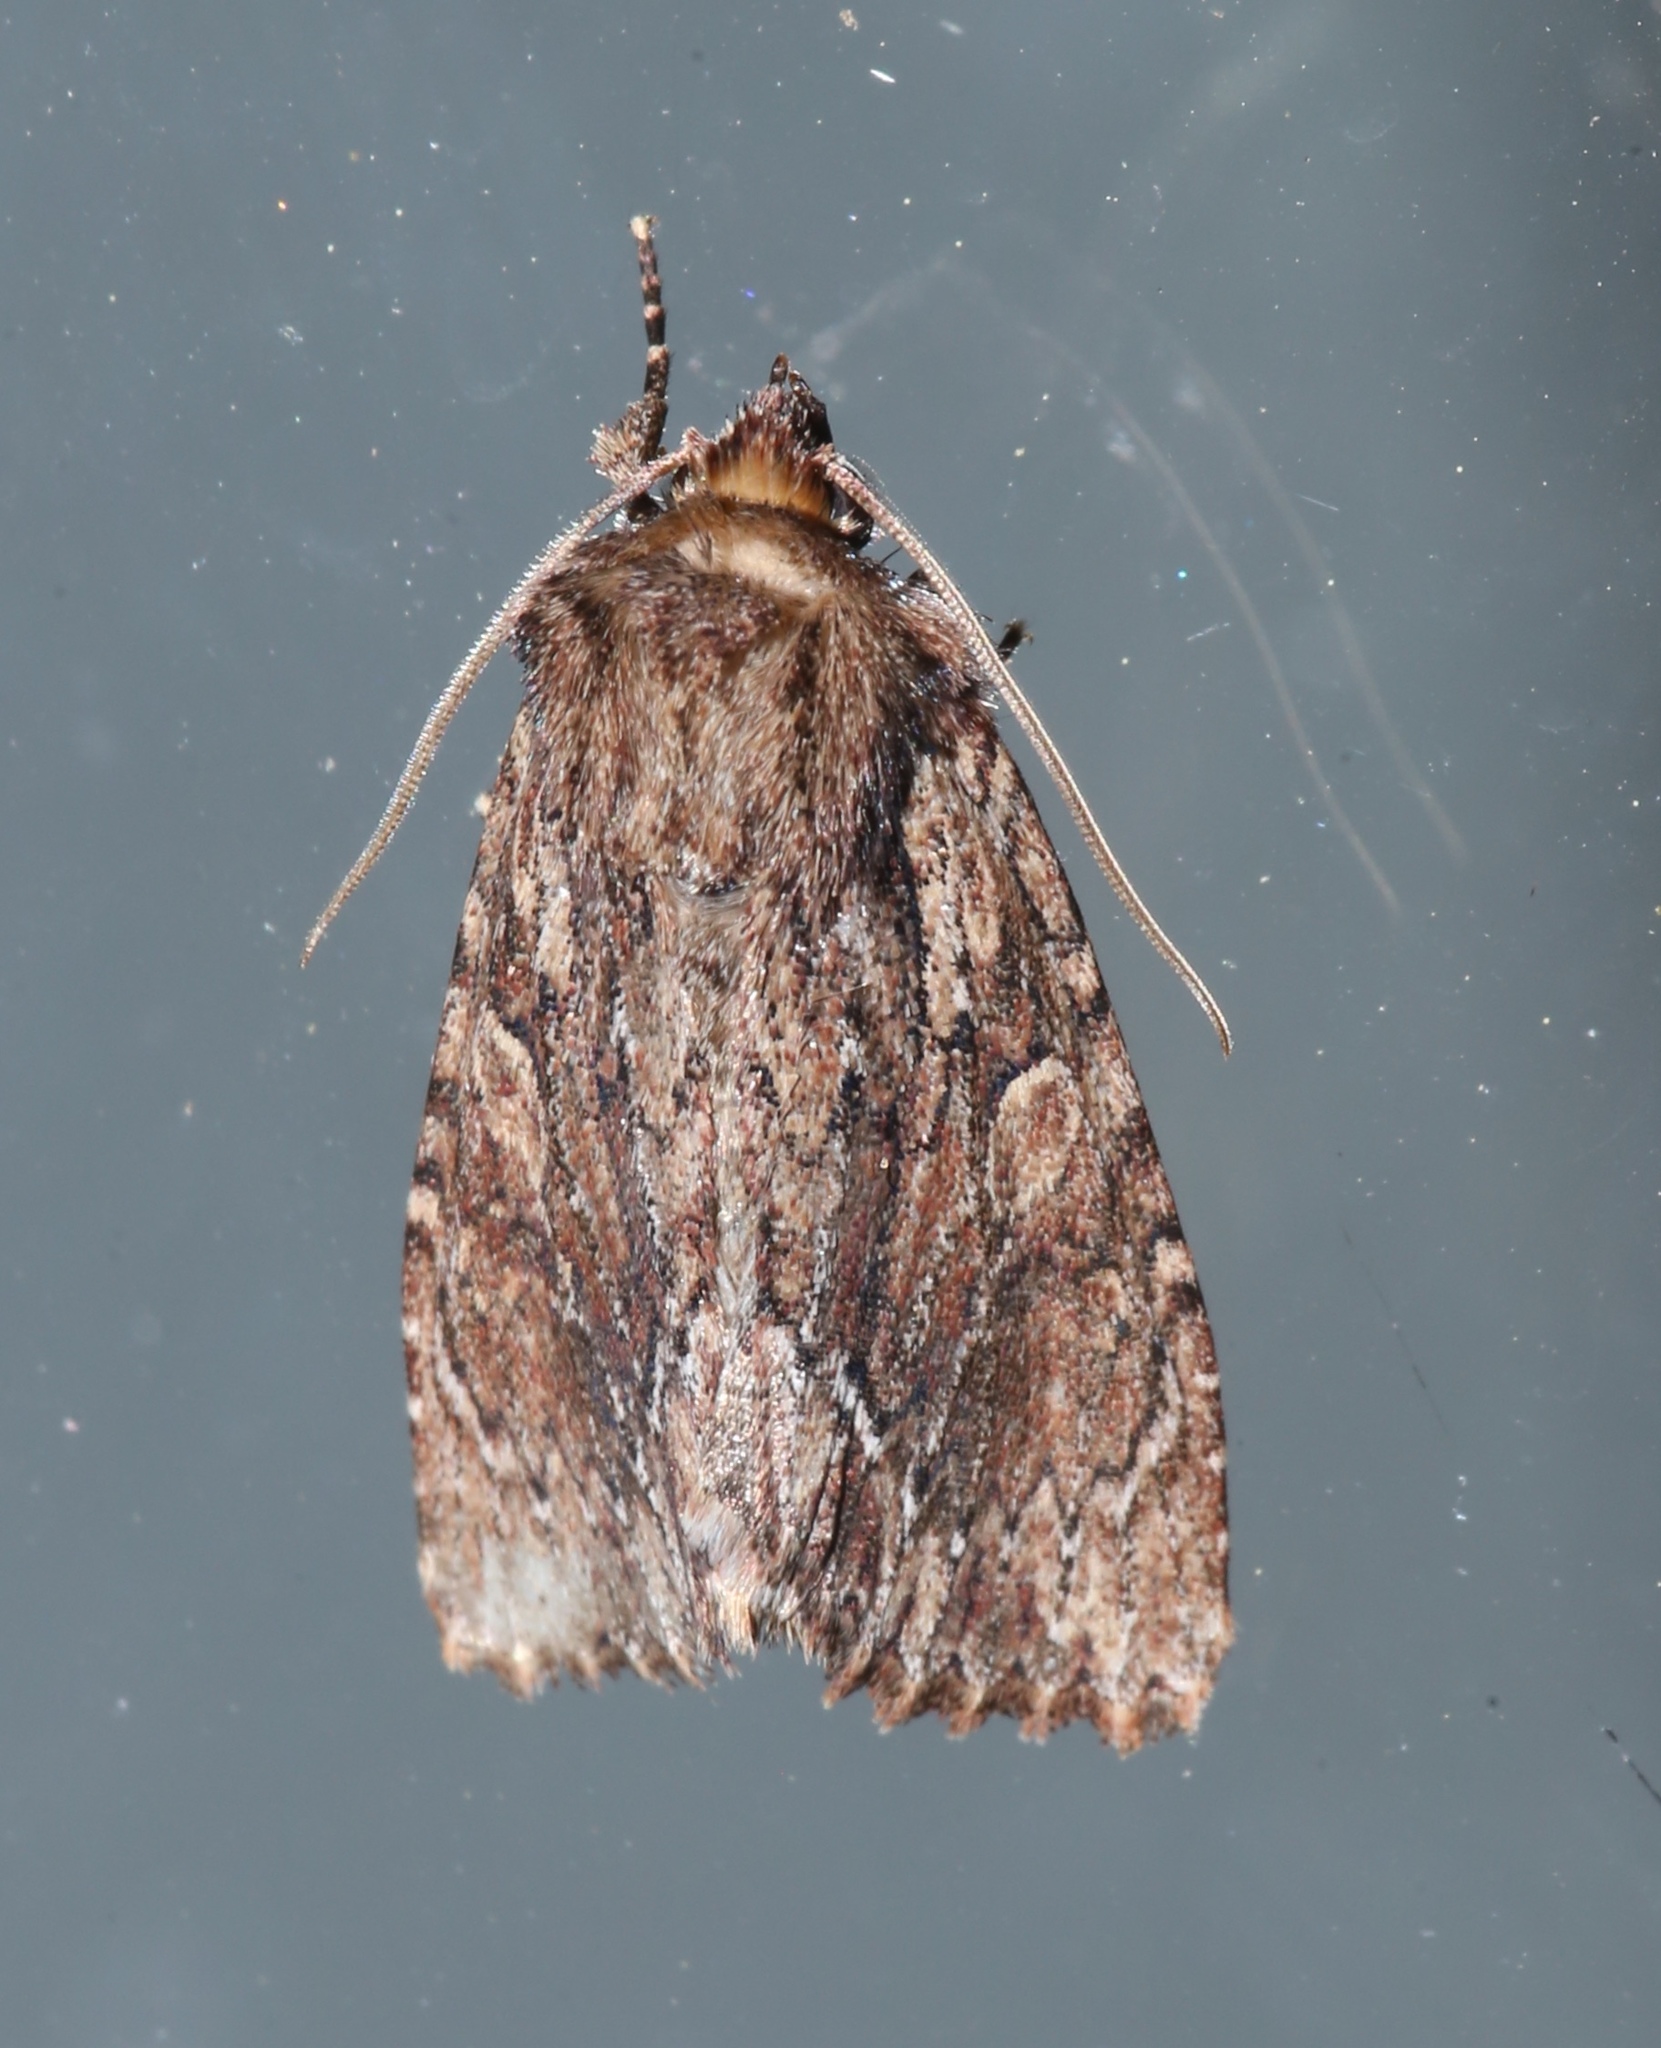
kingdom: Animalia
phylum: Arthropoda
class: Insecta
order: Lepidoptera
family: Noctuidae
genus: Achatia
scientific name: Achatia confusa
